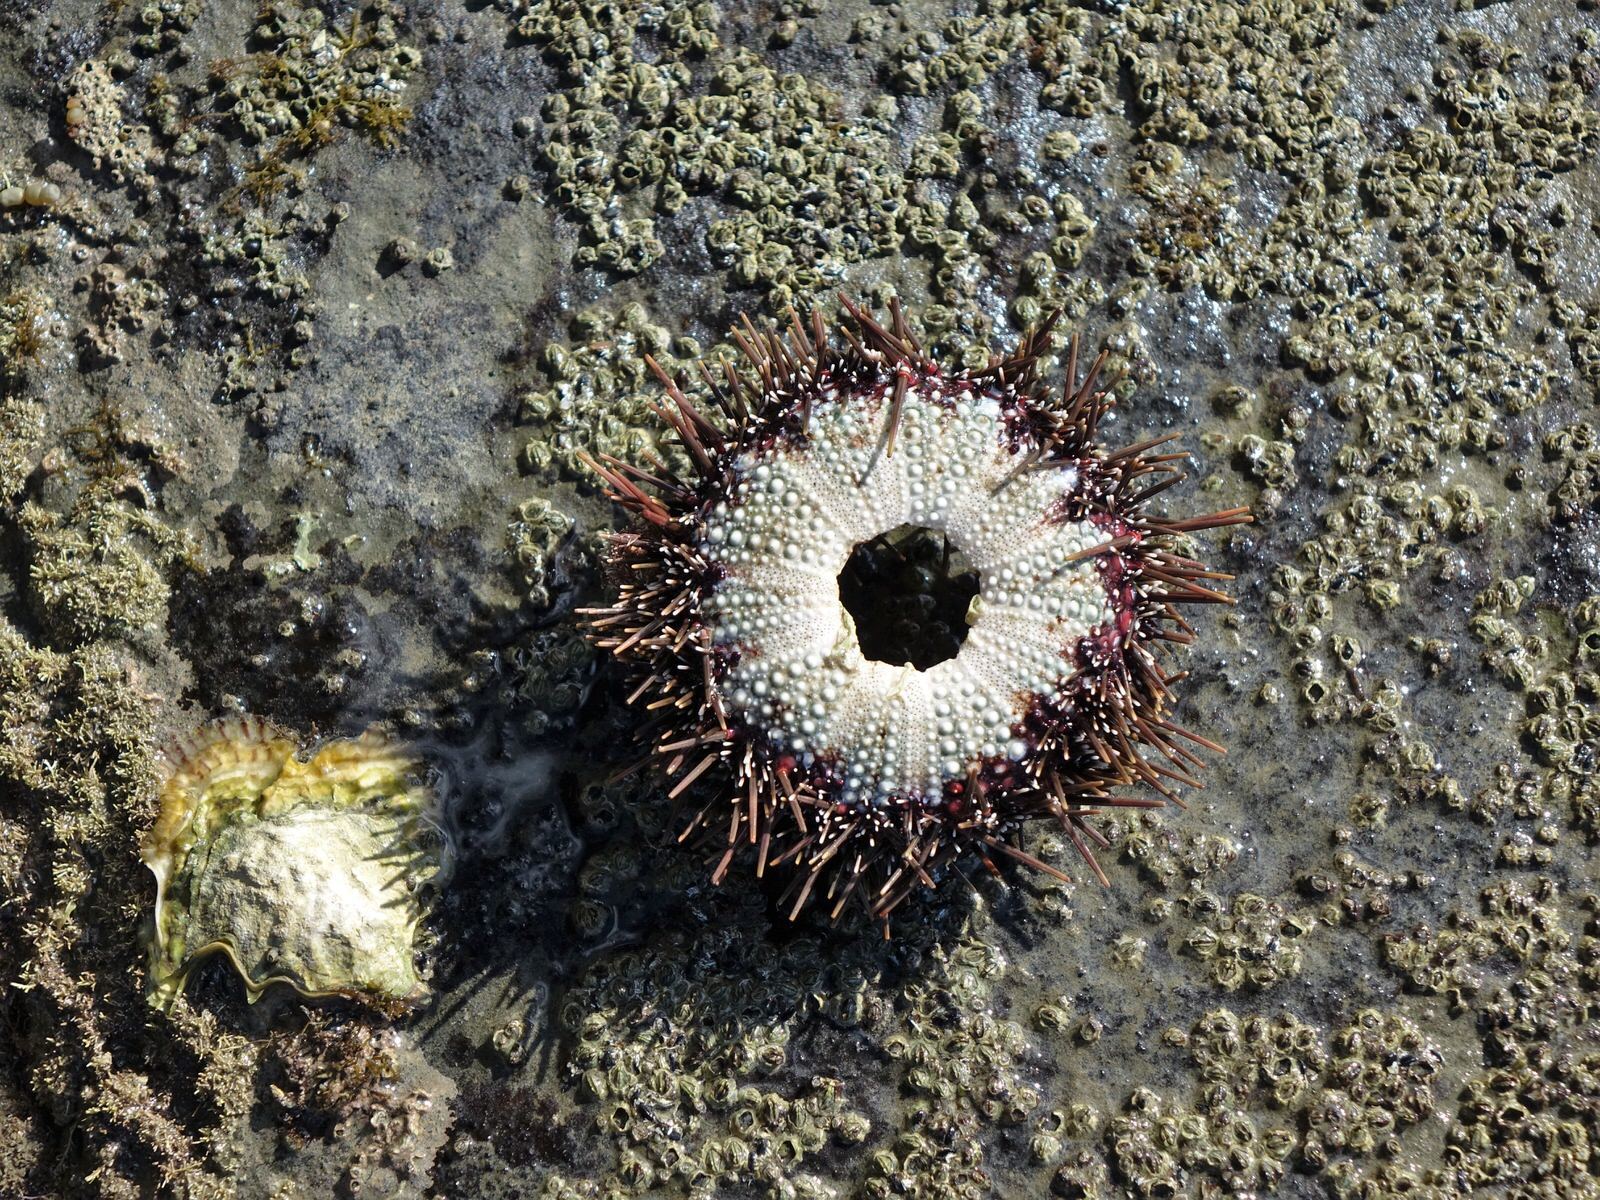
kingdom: Animalia
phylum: Echinodermata
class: Echinoidea
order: Camarodonta
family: Echinometridae
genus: Evechinus
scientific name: Evechinus chloroticus
